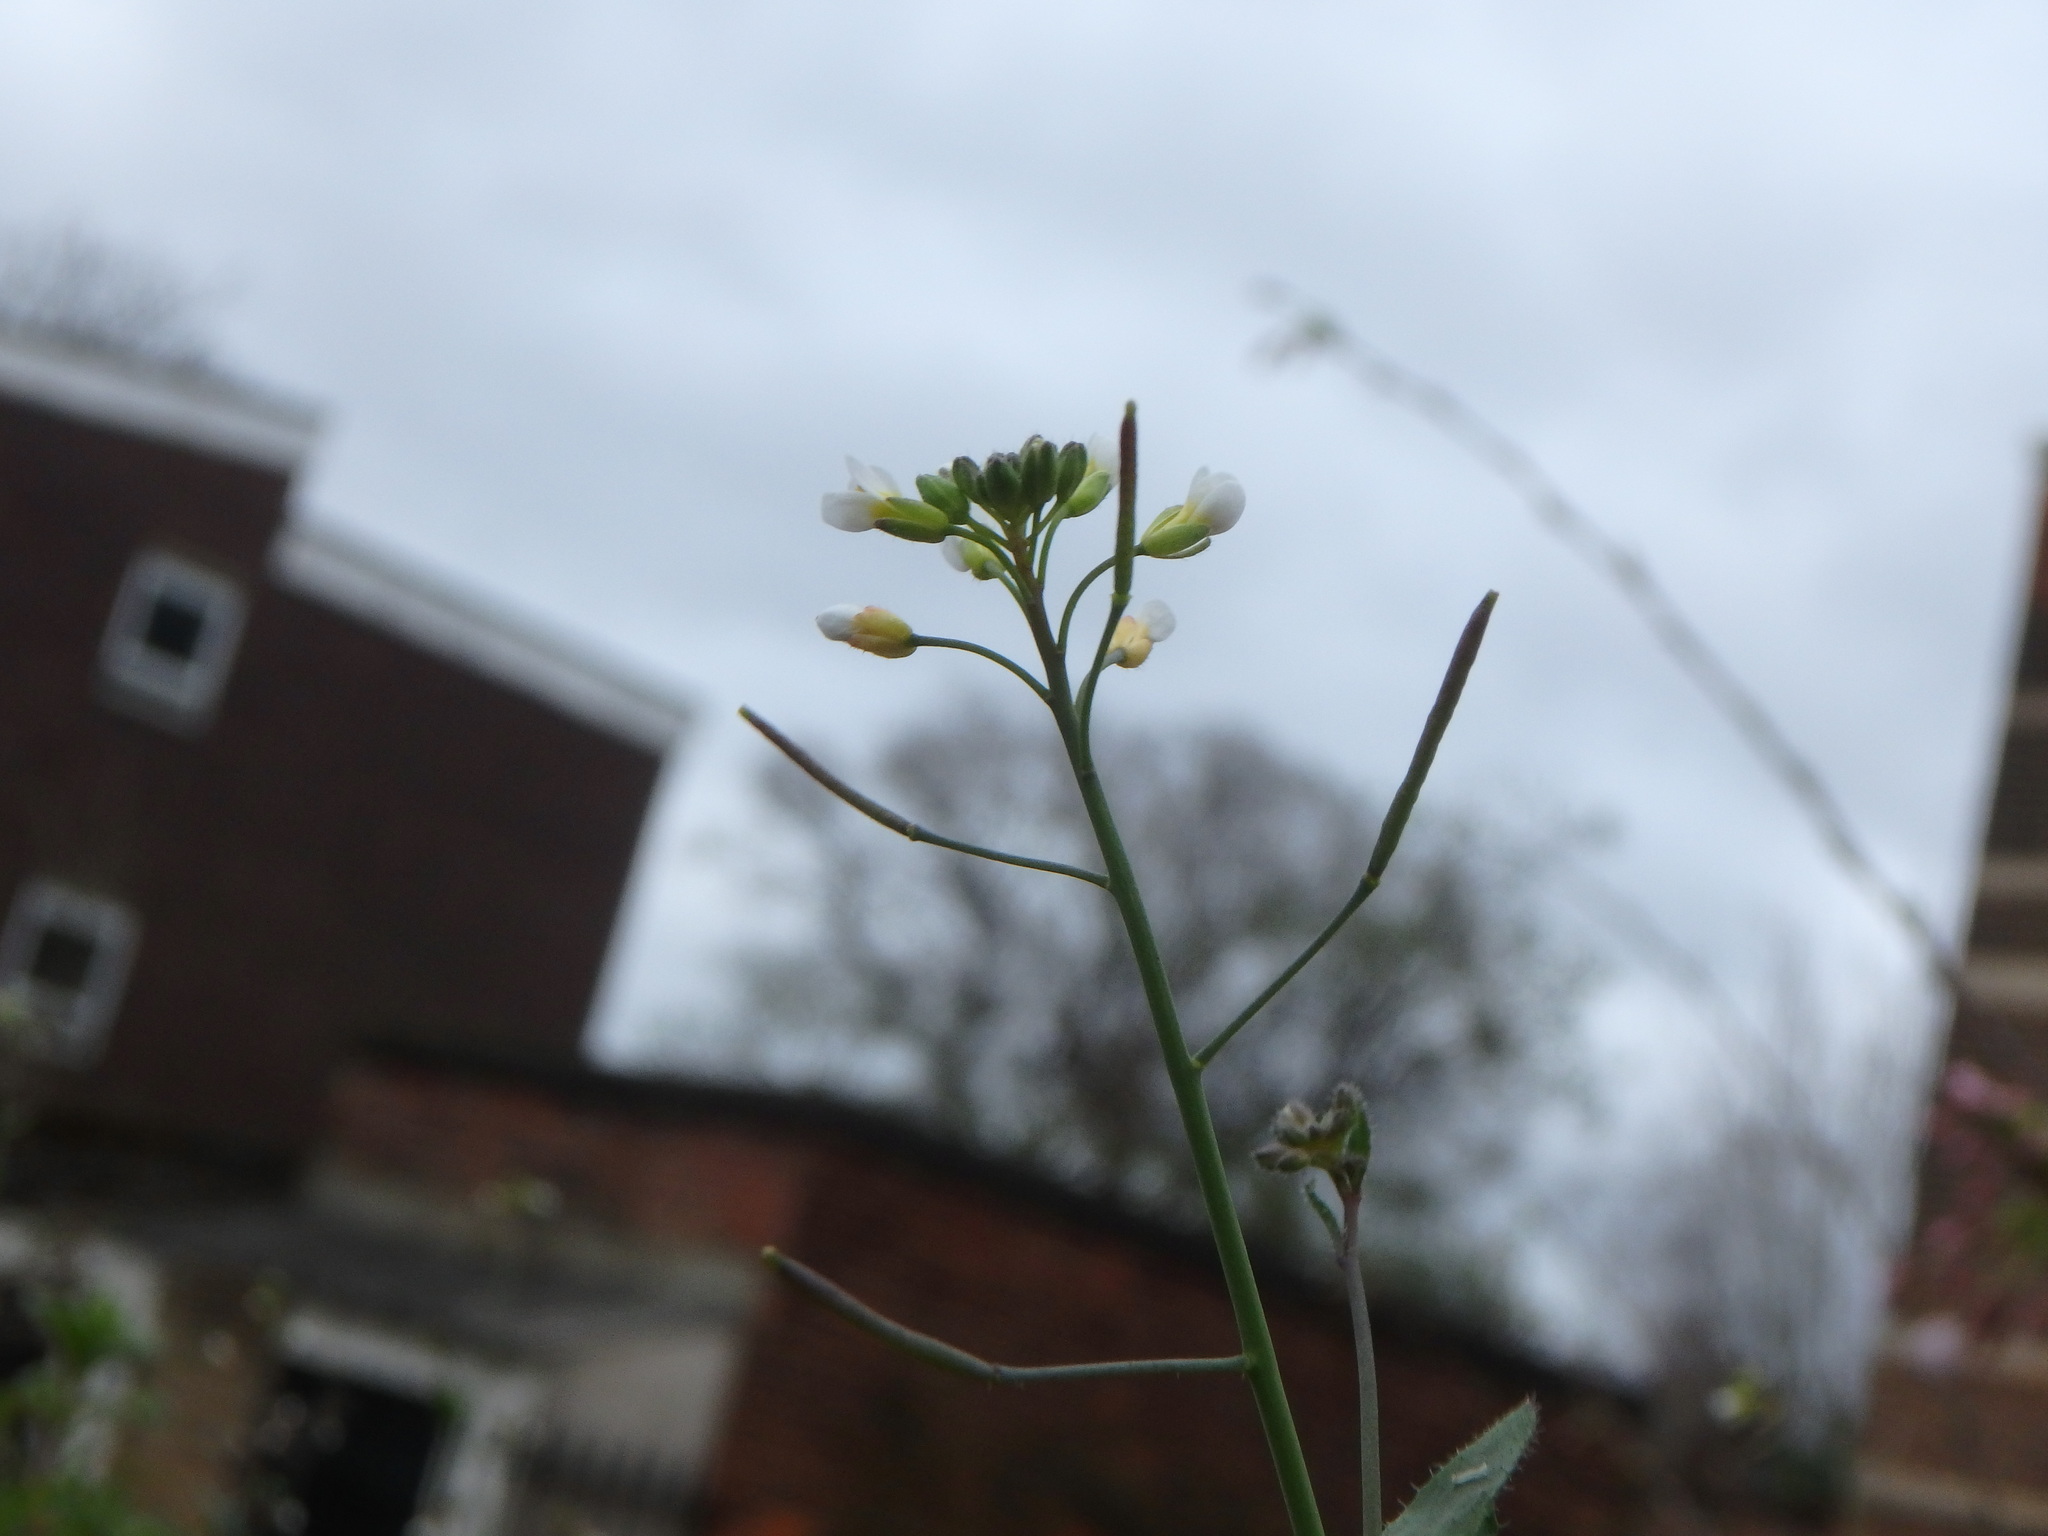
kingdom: Plantae
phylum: Tracheophyta
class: Magnoliopsida
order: Brassicales
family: Brassicaceae
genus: Arabidopsis
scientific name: Arabidopsis thaliana
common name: Thale cress
